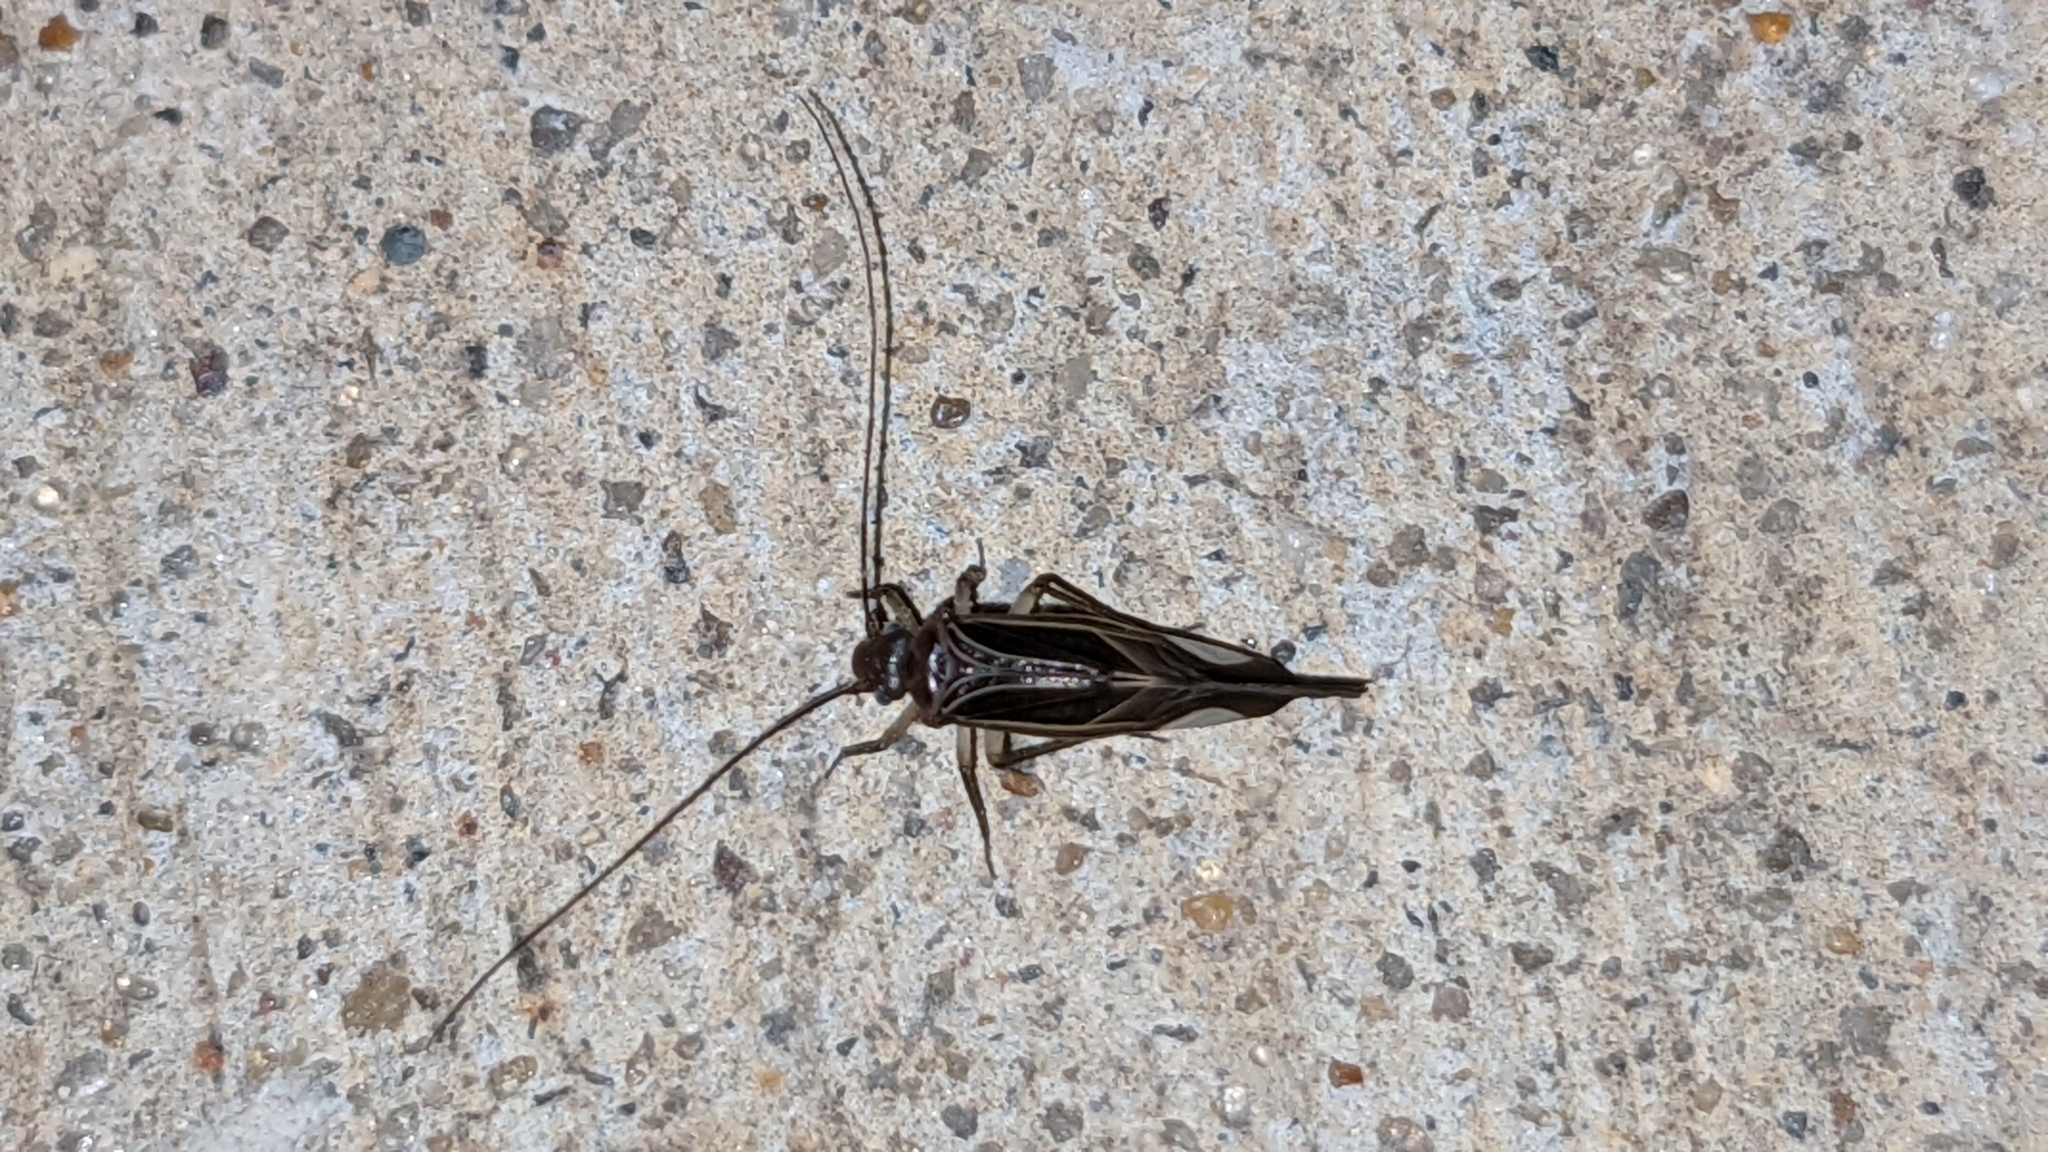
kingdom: Animalia
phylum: Arthropoda
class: Insecta
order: Psocodea
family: Psocidae
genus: Cerastipsocus
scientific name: Cerastipsocus venosus
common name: Tree cattle
